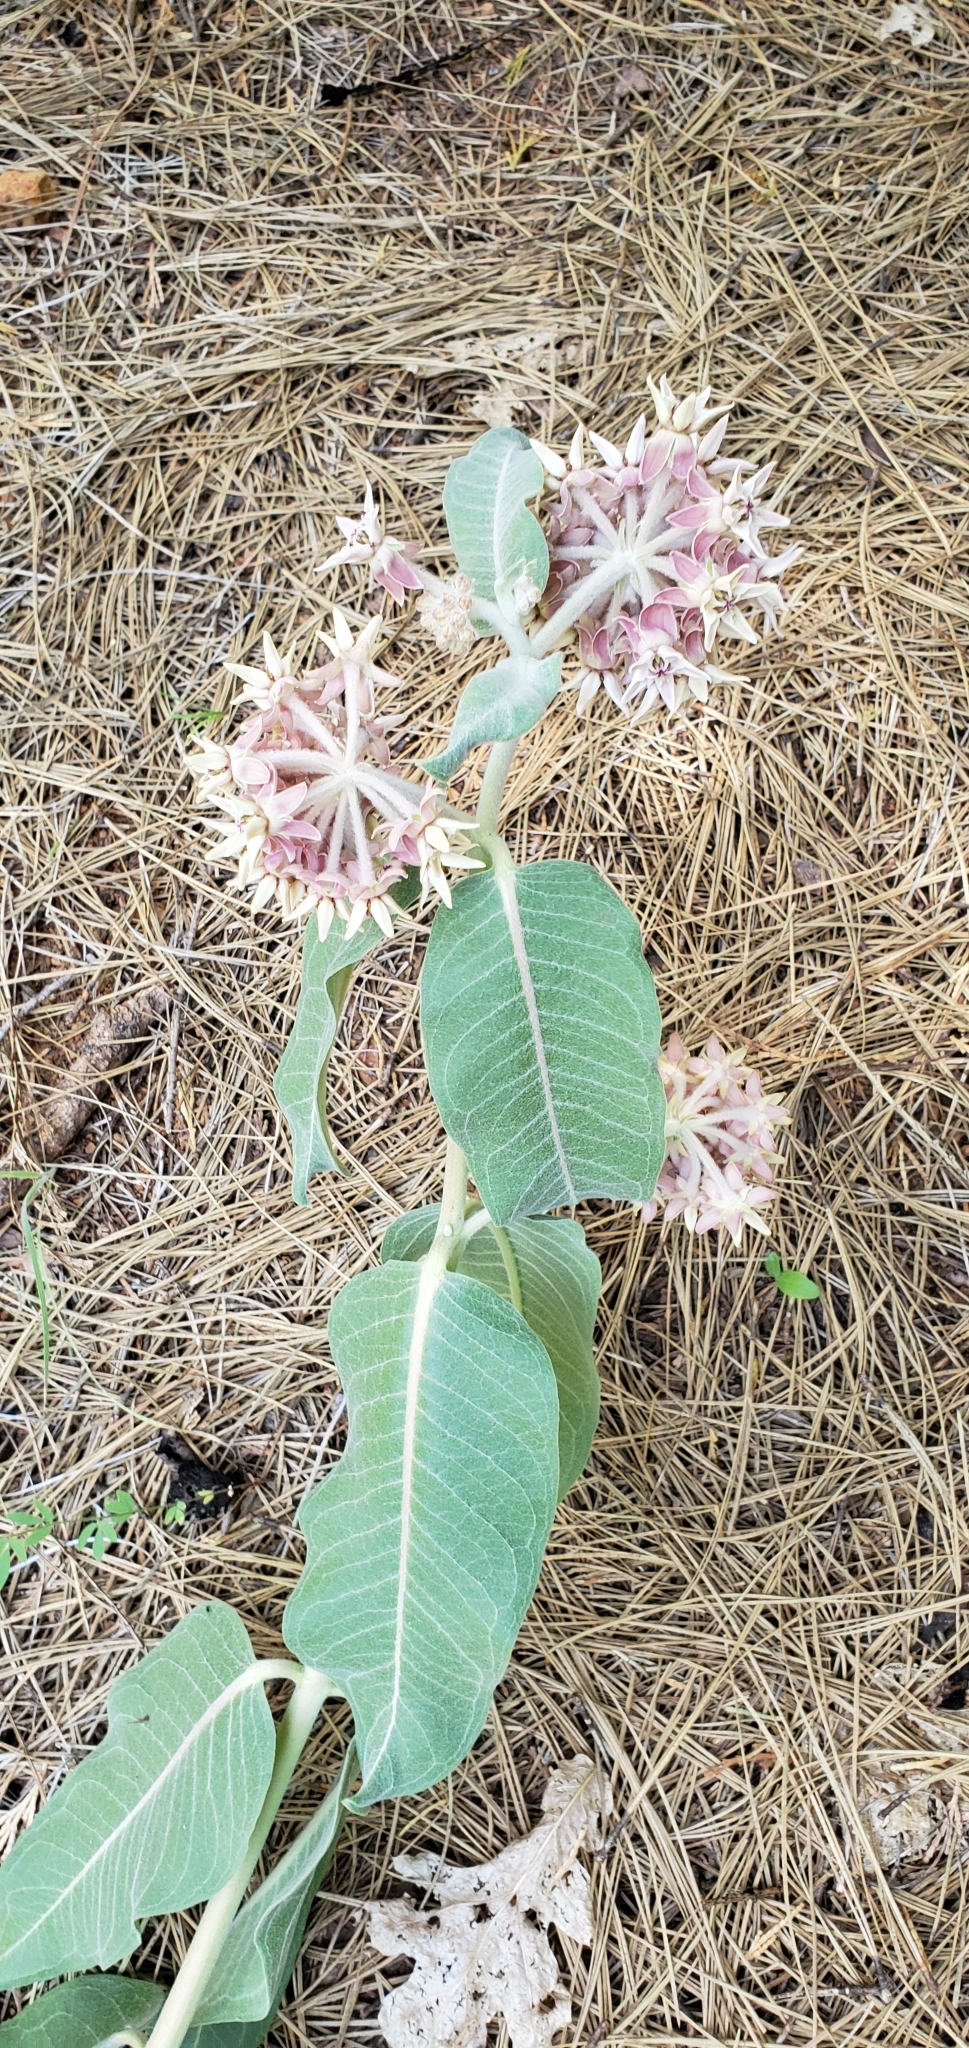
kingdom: Plantae
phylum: Tracheophyta
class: Magnoliopsida
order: Gentianales
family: Apocynaceae
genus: Asclepias
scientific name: Asclepias speciosa
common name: Showy milkweed
